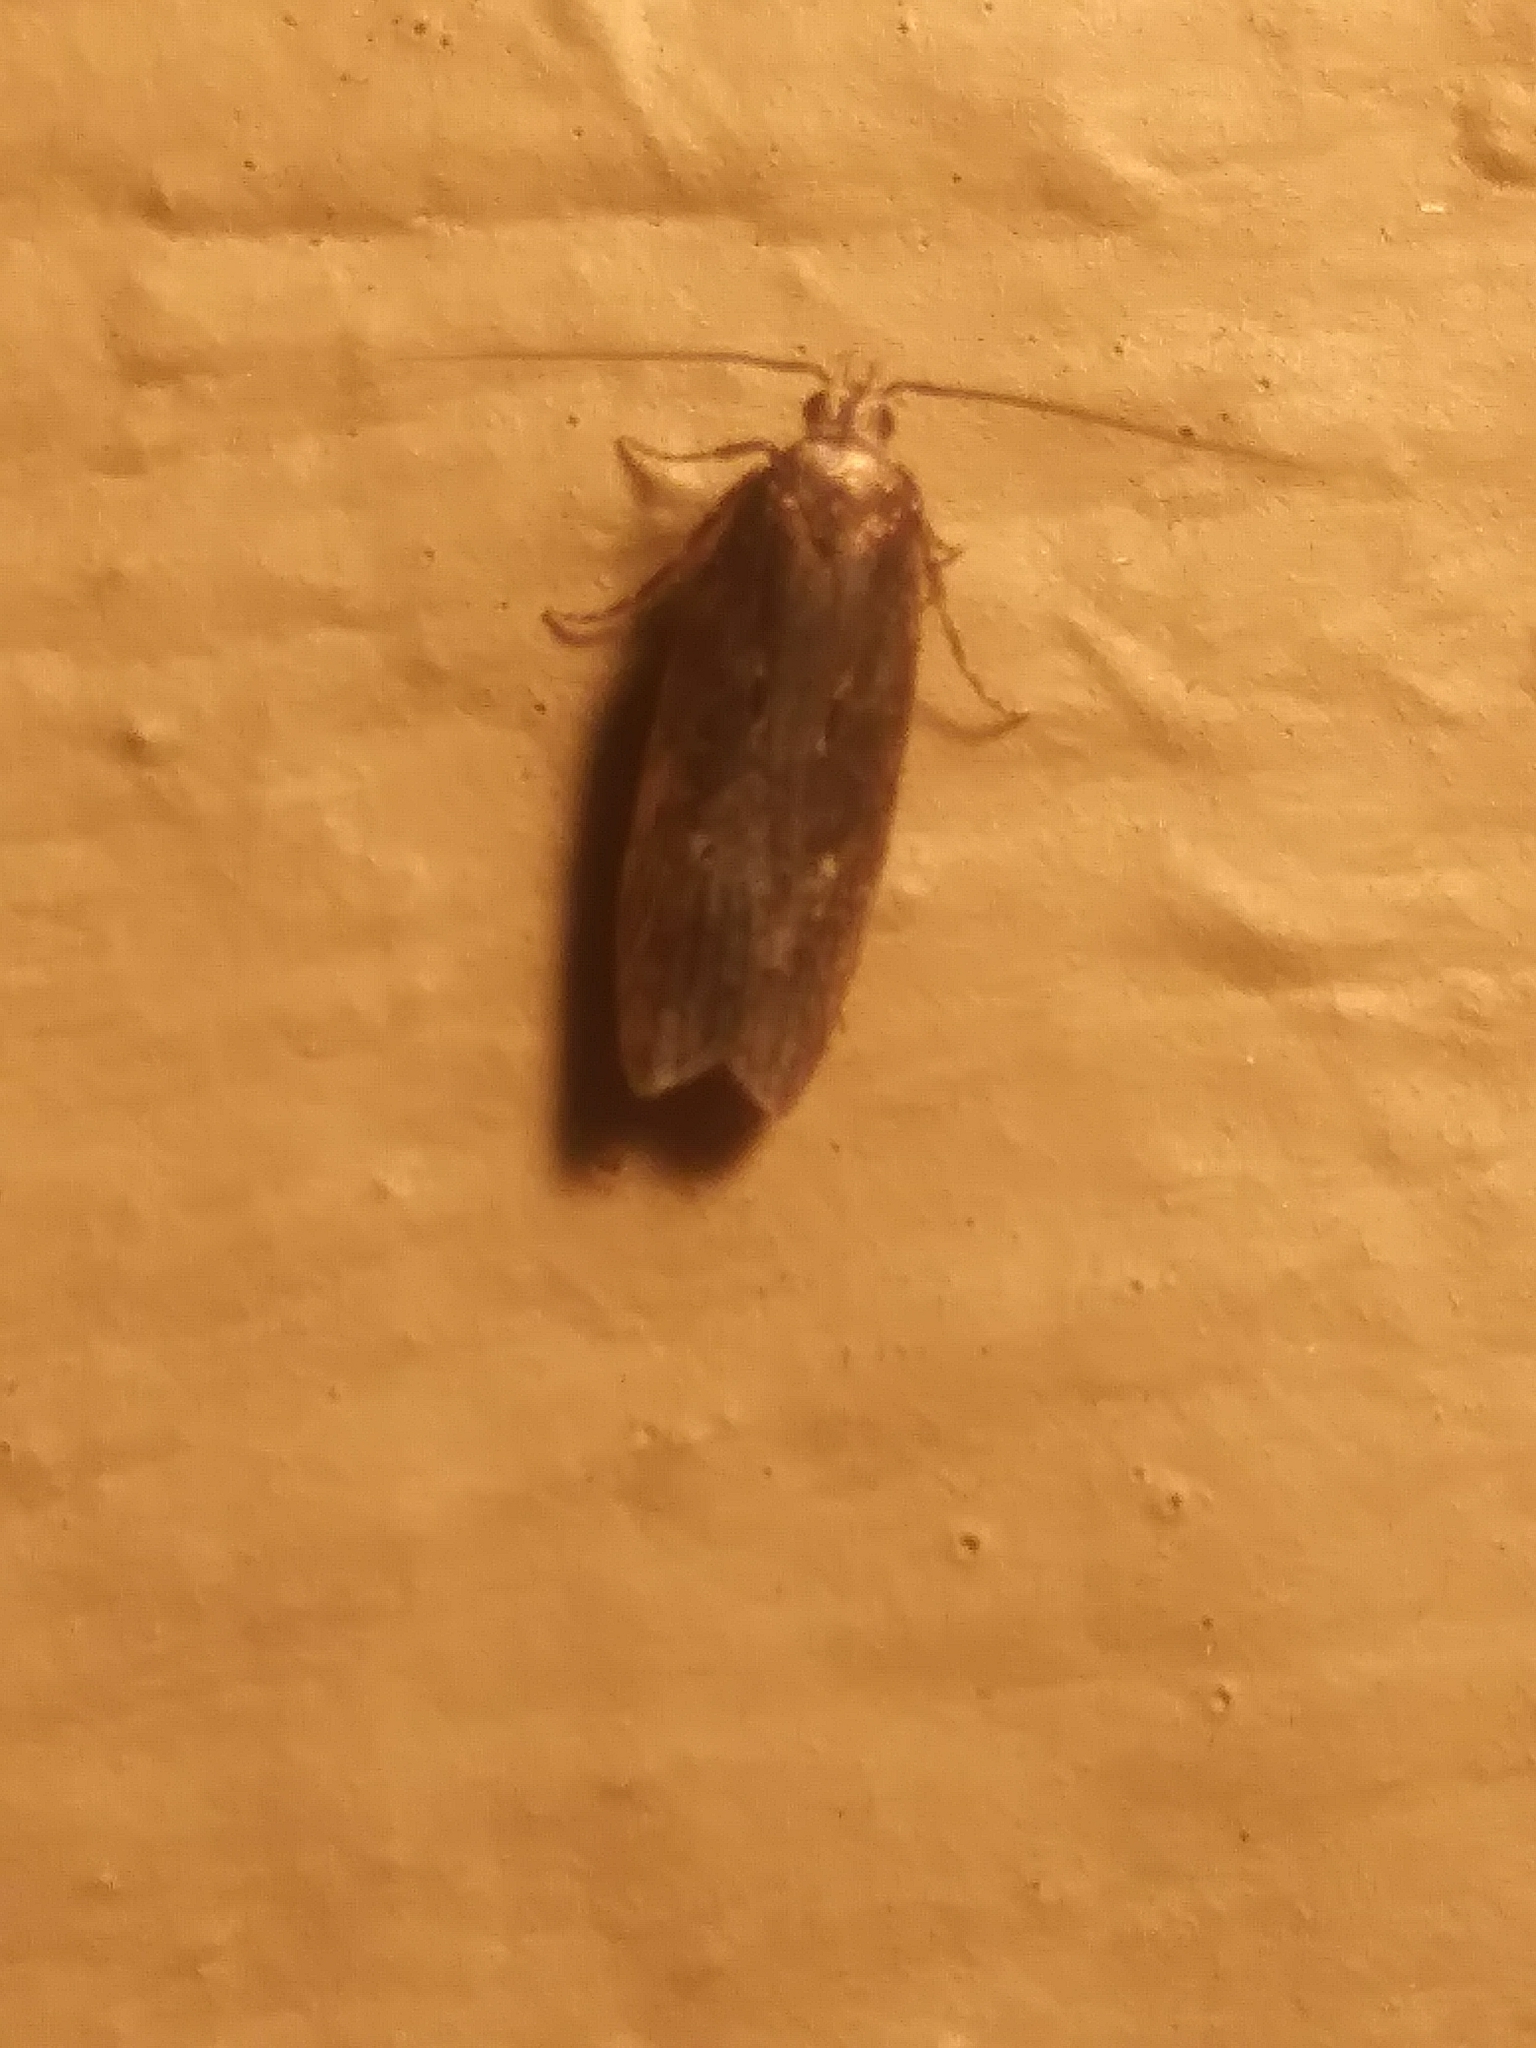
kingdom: Animalia
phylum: Arthropoda
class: Insecta
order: Lepidoptera
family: Gelechiidae
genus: Chionodes
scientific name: Chionodes discoocellella
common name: Eye-ringed chionodes moth
